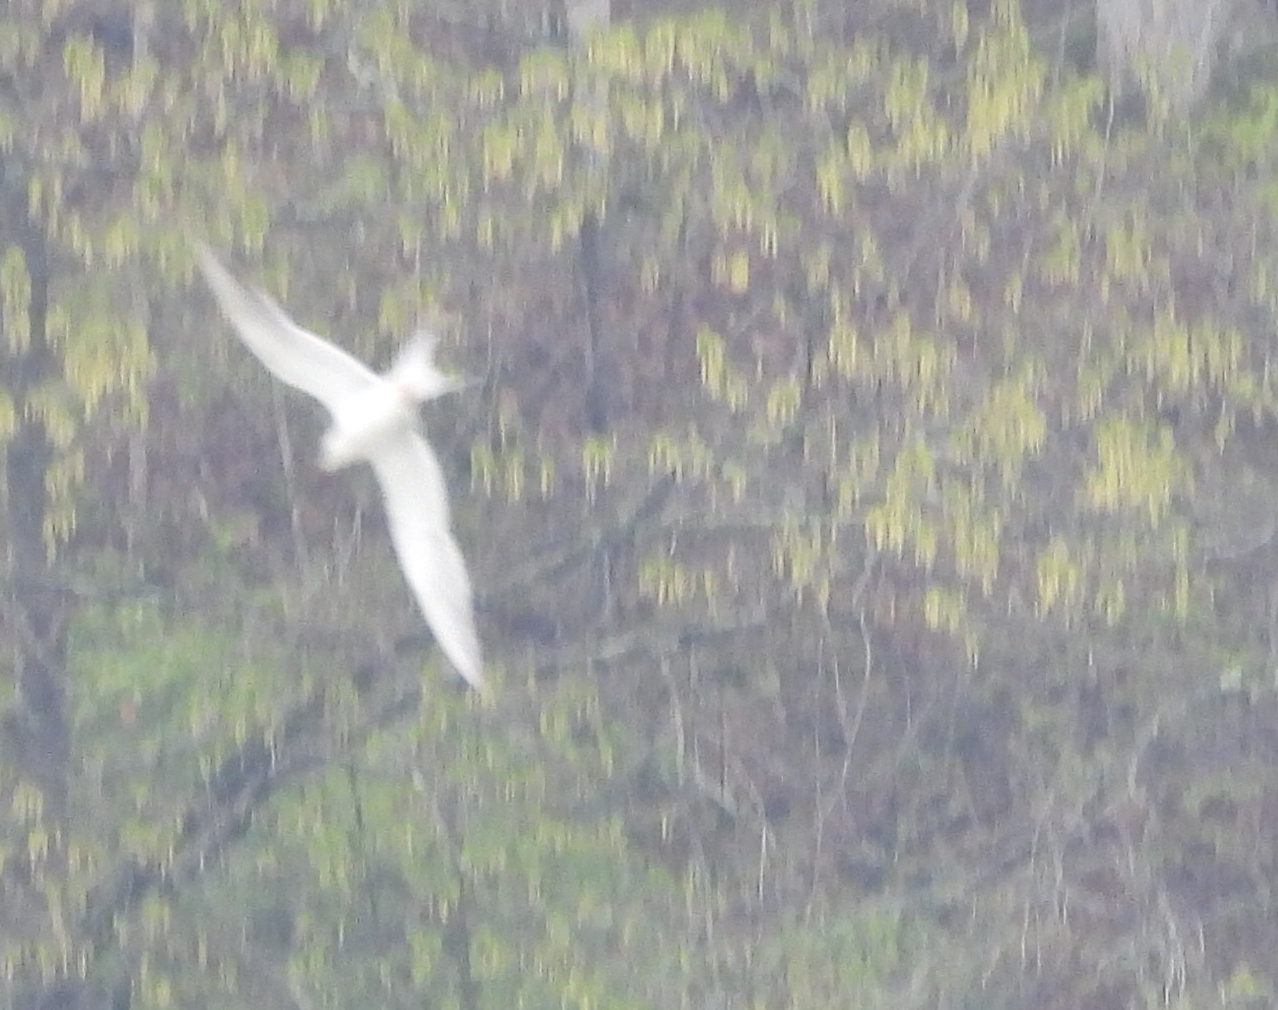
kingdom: Animalia
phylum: Chordata
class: Aves
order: Charadriiformes
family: Laridae
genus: Sterna
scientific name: Sterna forsteri
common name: Forster's tern
